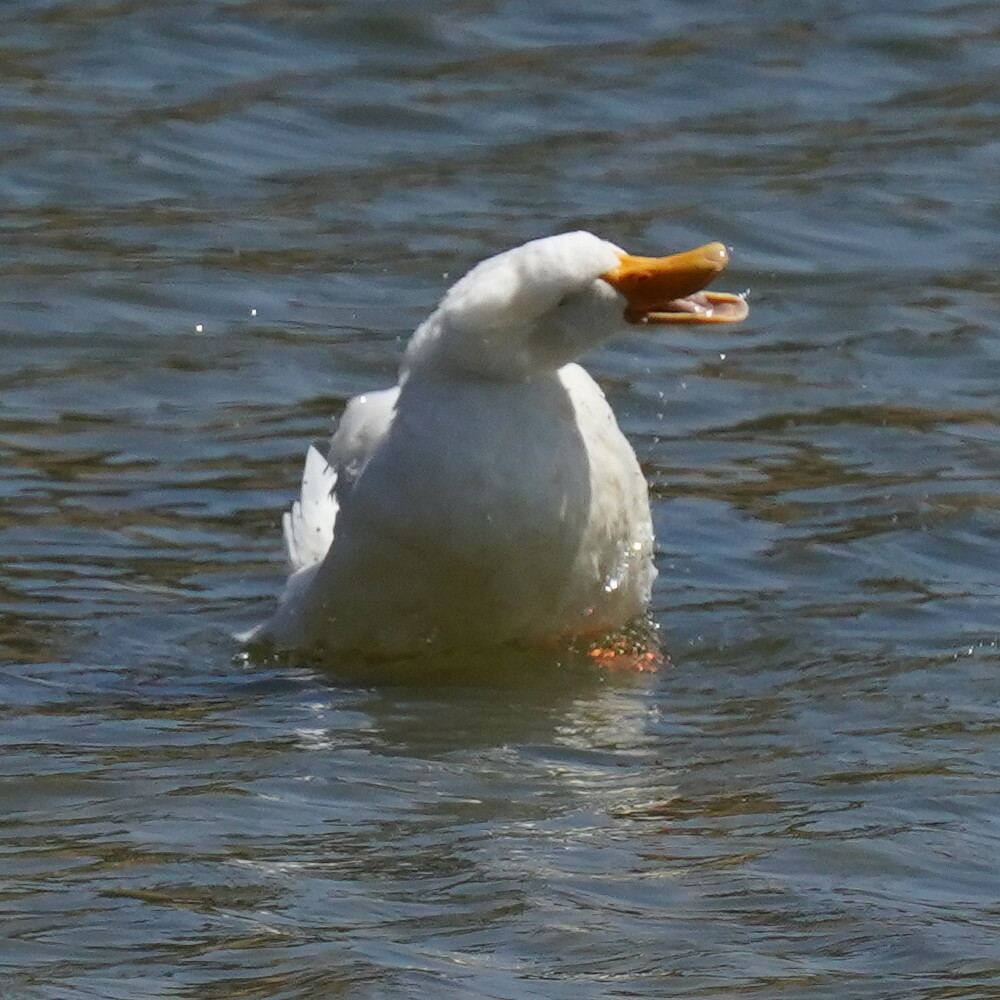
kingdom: Animalia
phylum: Chordata
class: Aves
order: Anseriformes
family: Anatidae
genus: Anas
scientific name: Anas platyrhynchos
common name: Mallard
